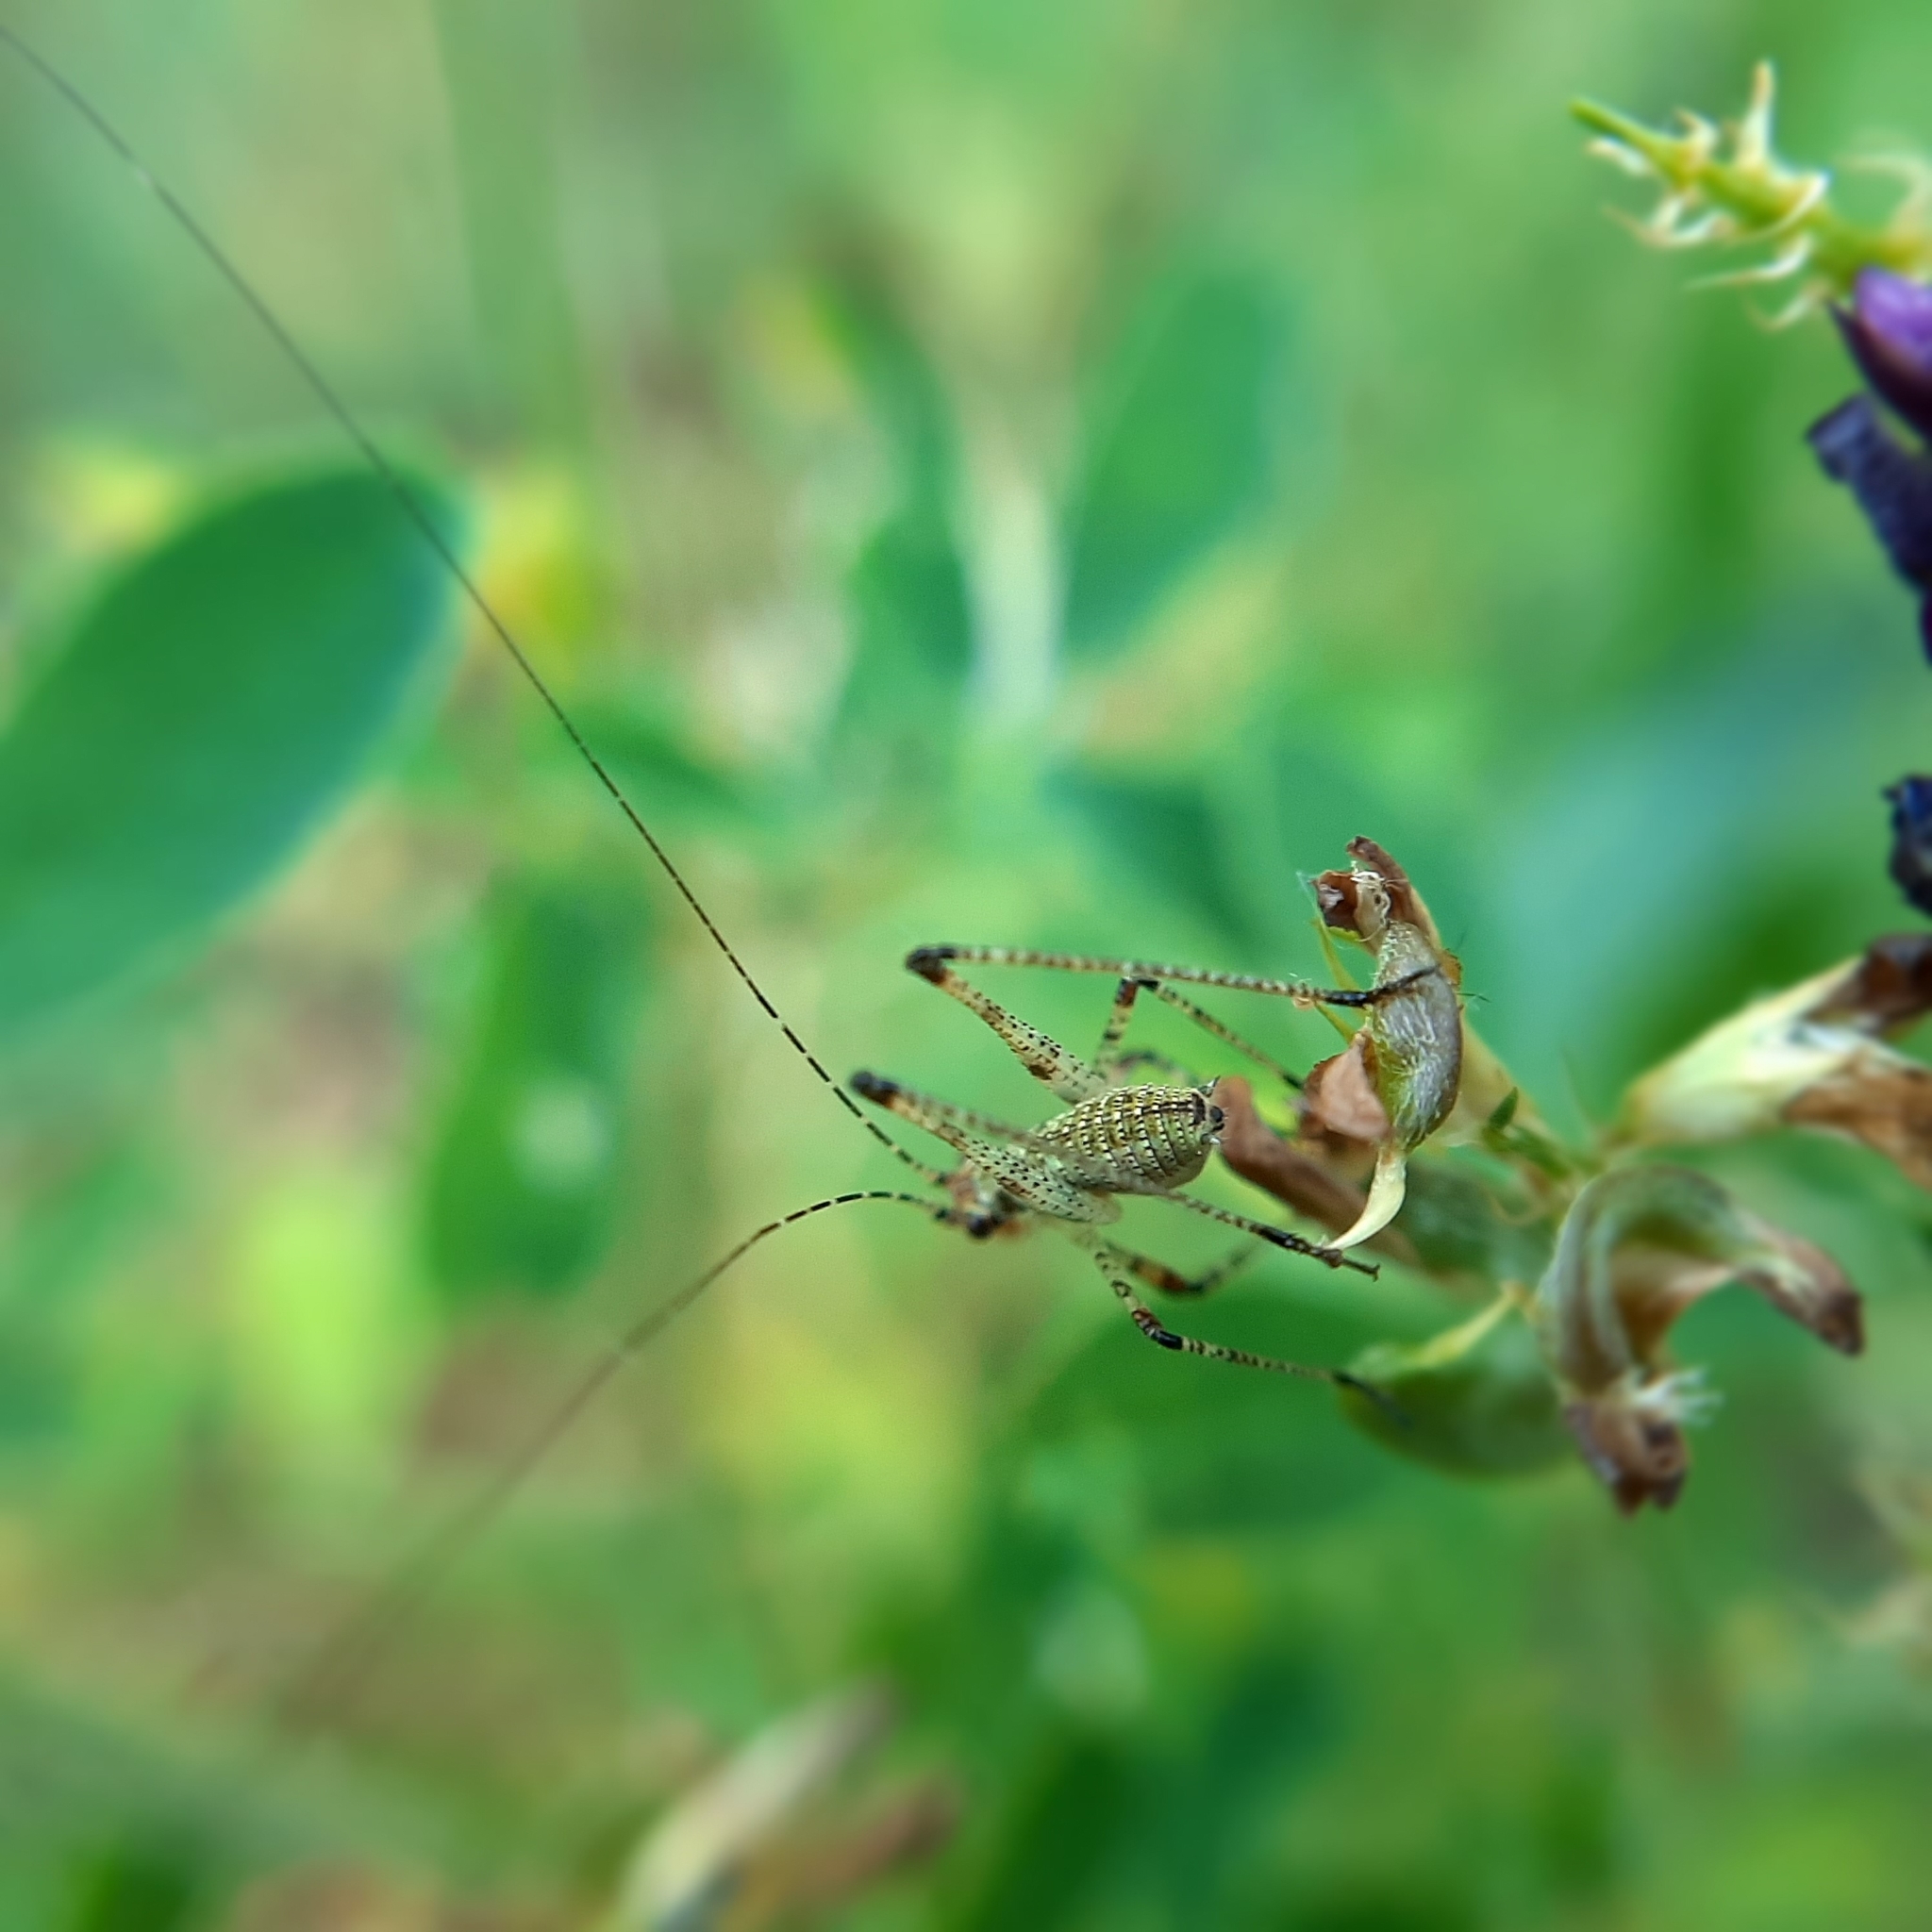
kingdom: Animalia
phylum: Arthropoda
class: Insecta
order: Orthoptera
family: Tettigoniidae
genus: Phaneroptera
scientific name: Phaneroptera
